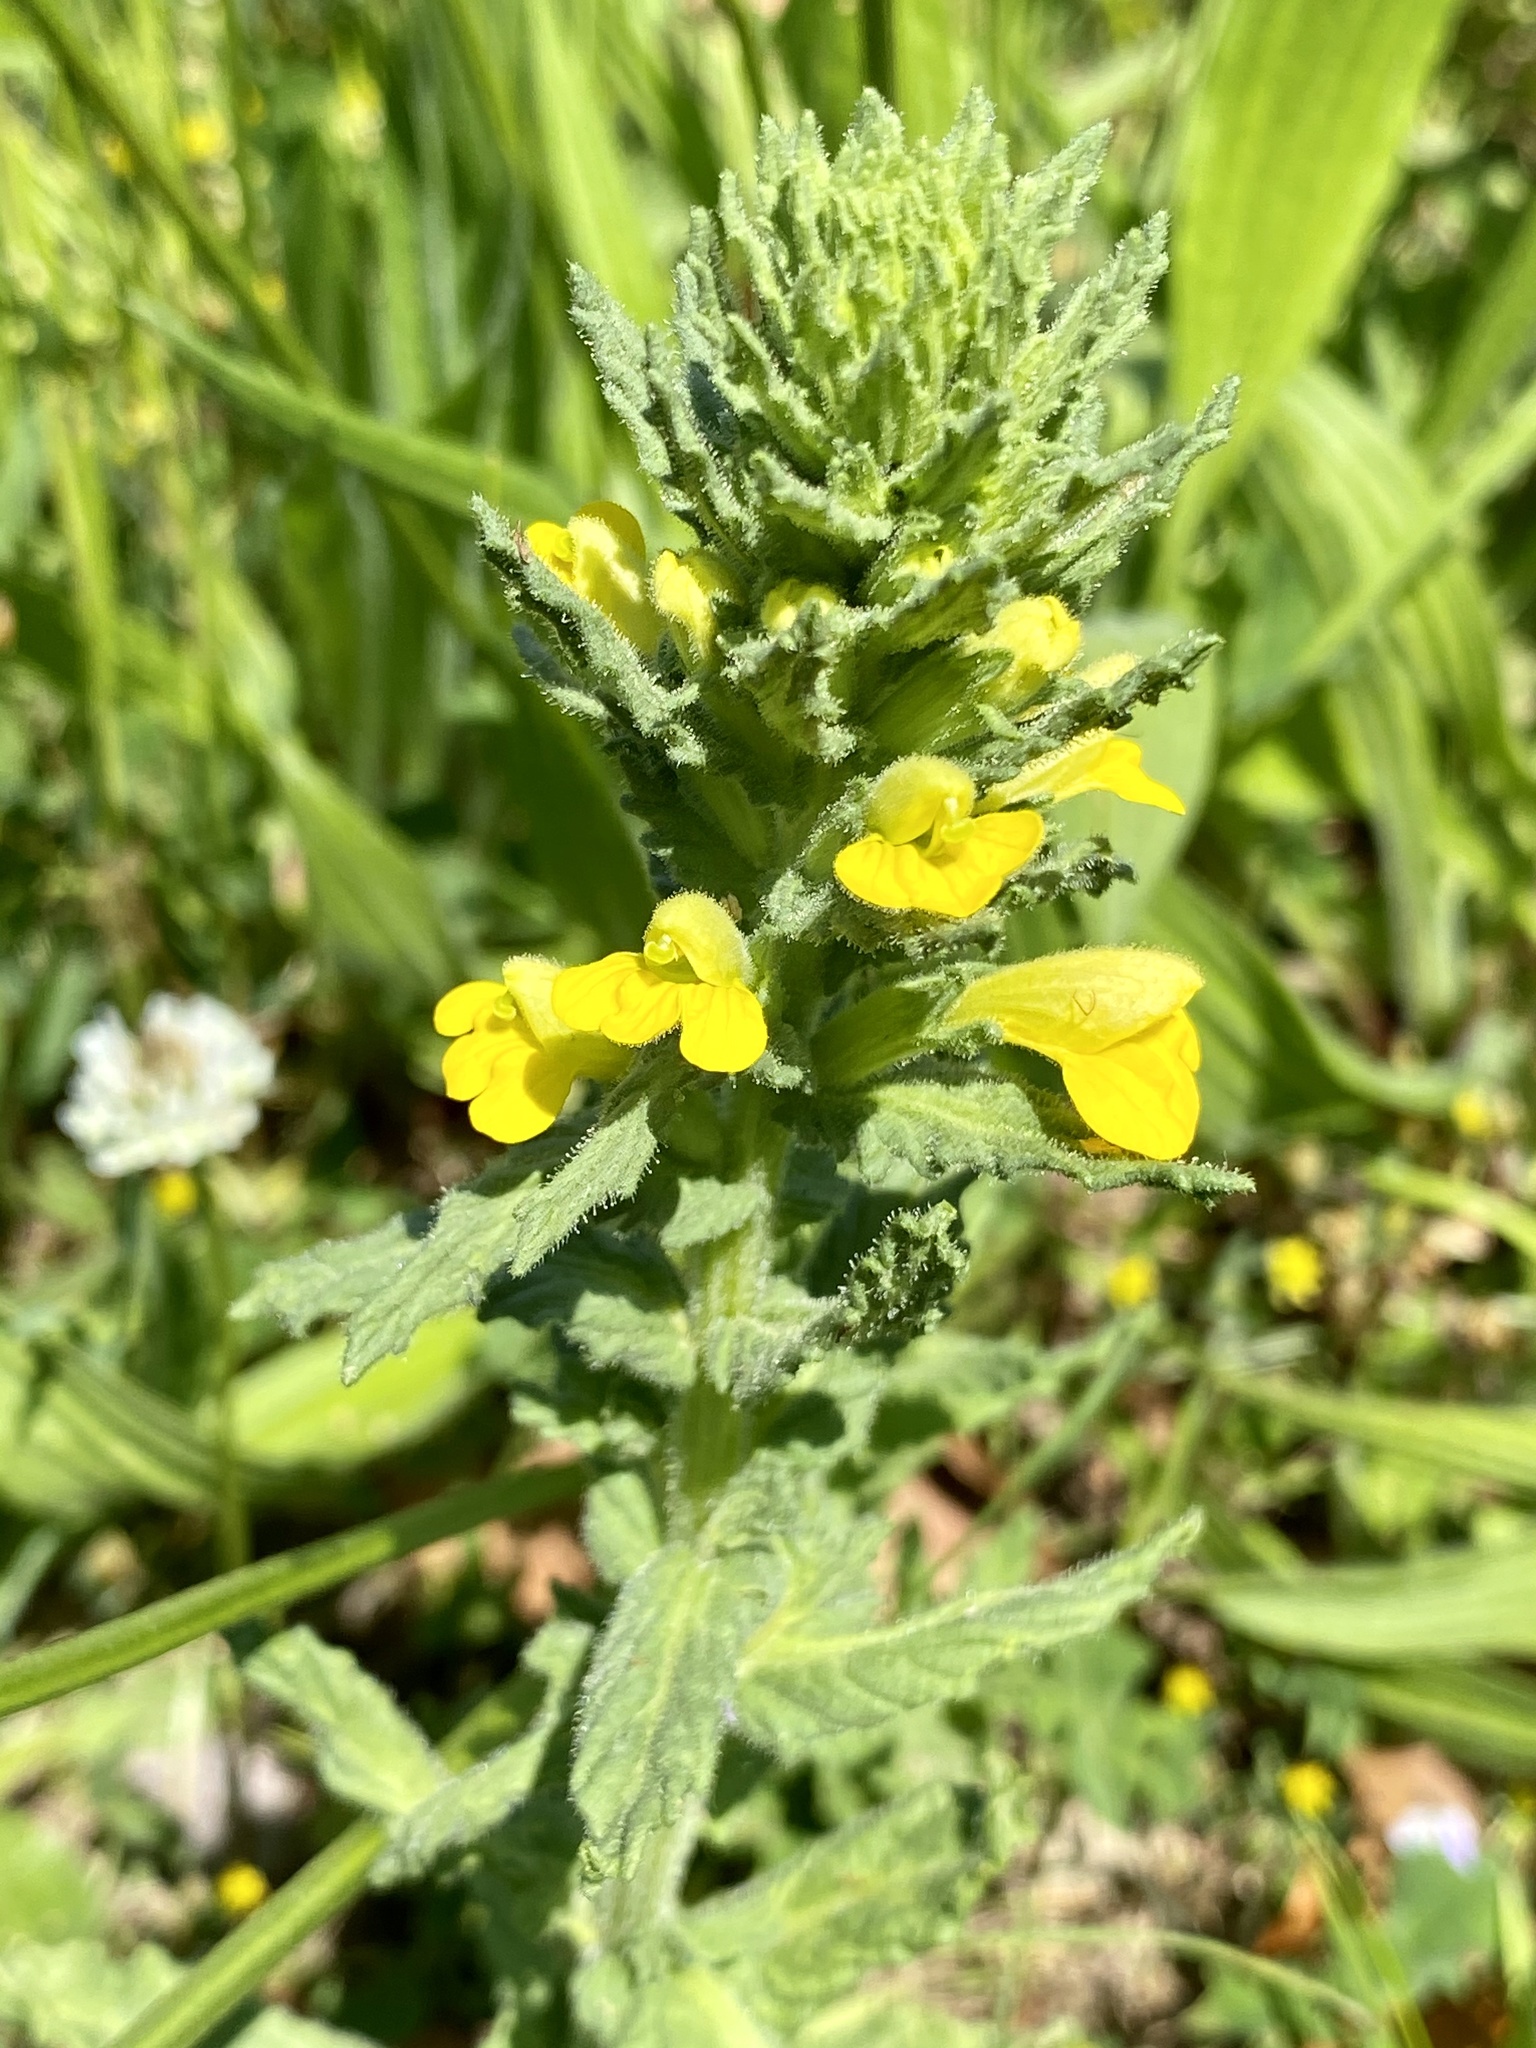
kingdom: Plantae
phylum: Tracheophyta
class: Magnoliopsida
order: Lamiales
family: Orobanchaceae
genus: Bellardia
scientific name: Bellardia viscosa
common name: Sticky parentucellia
